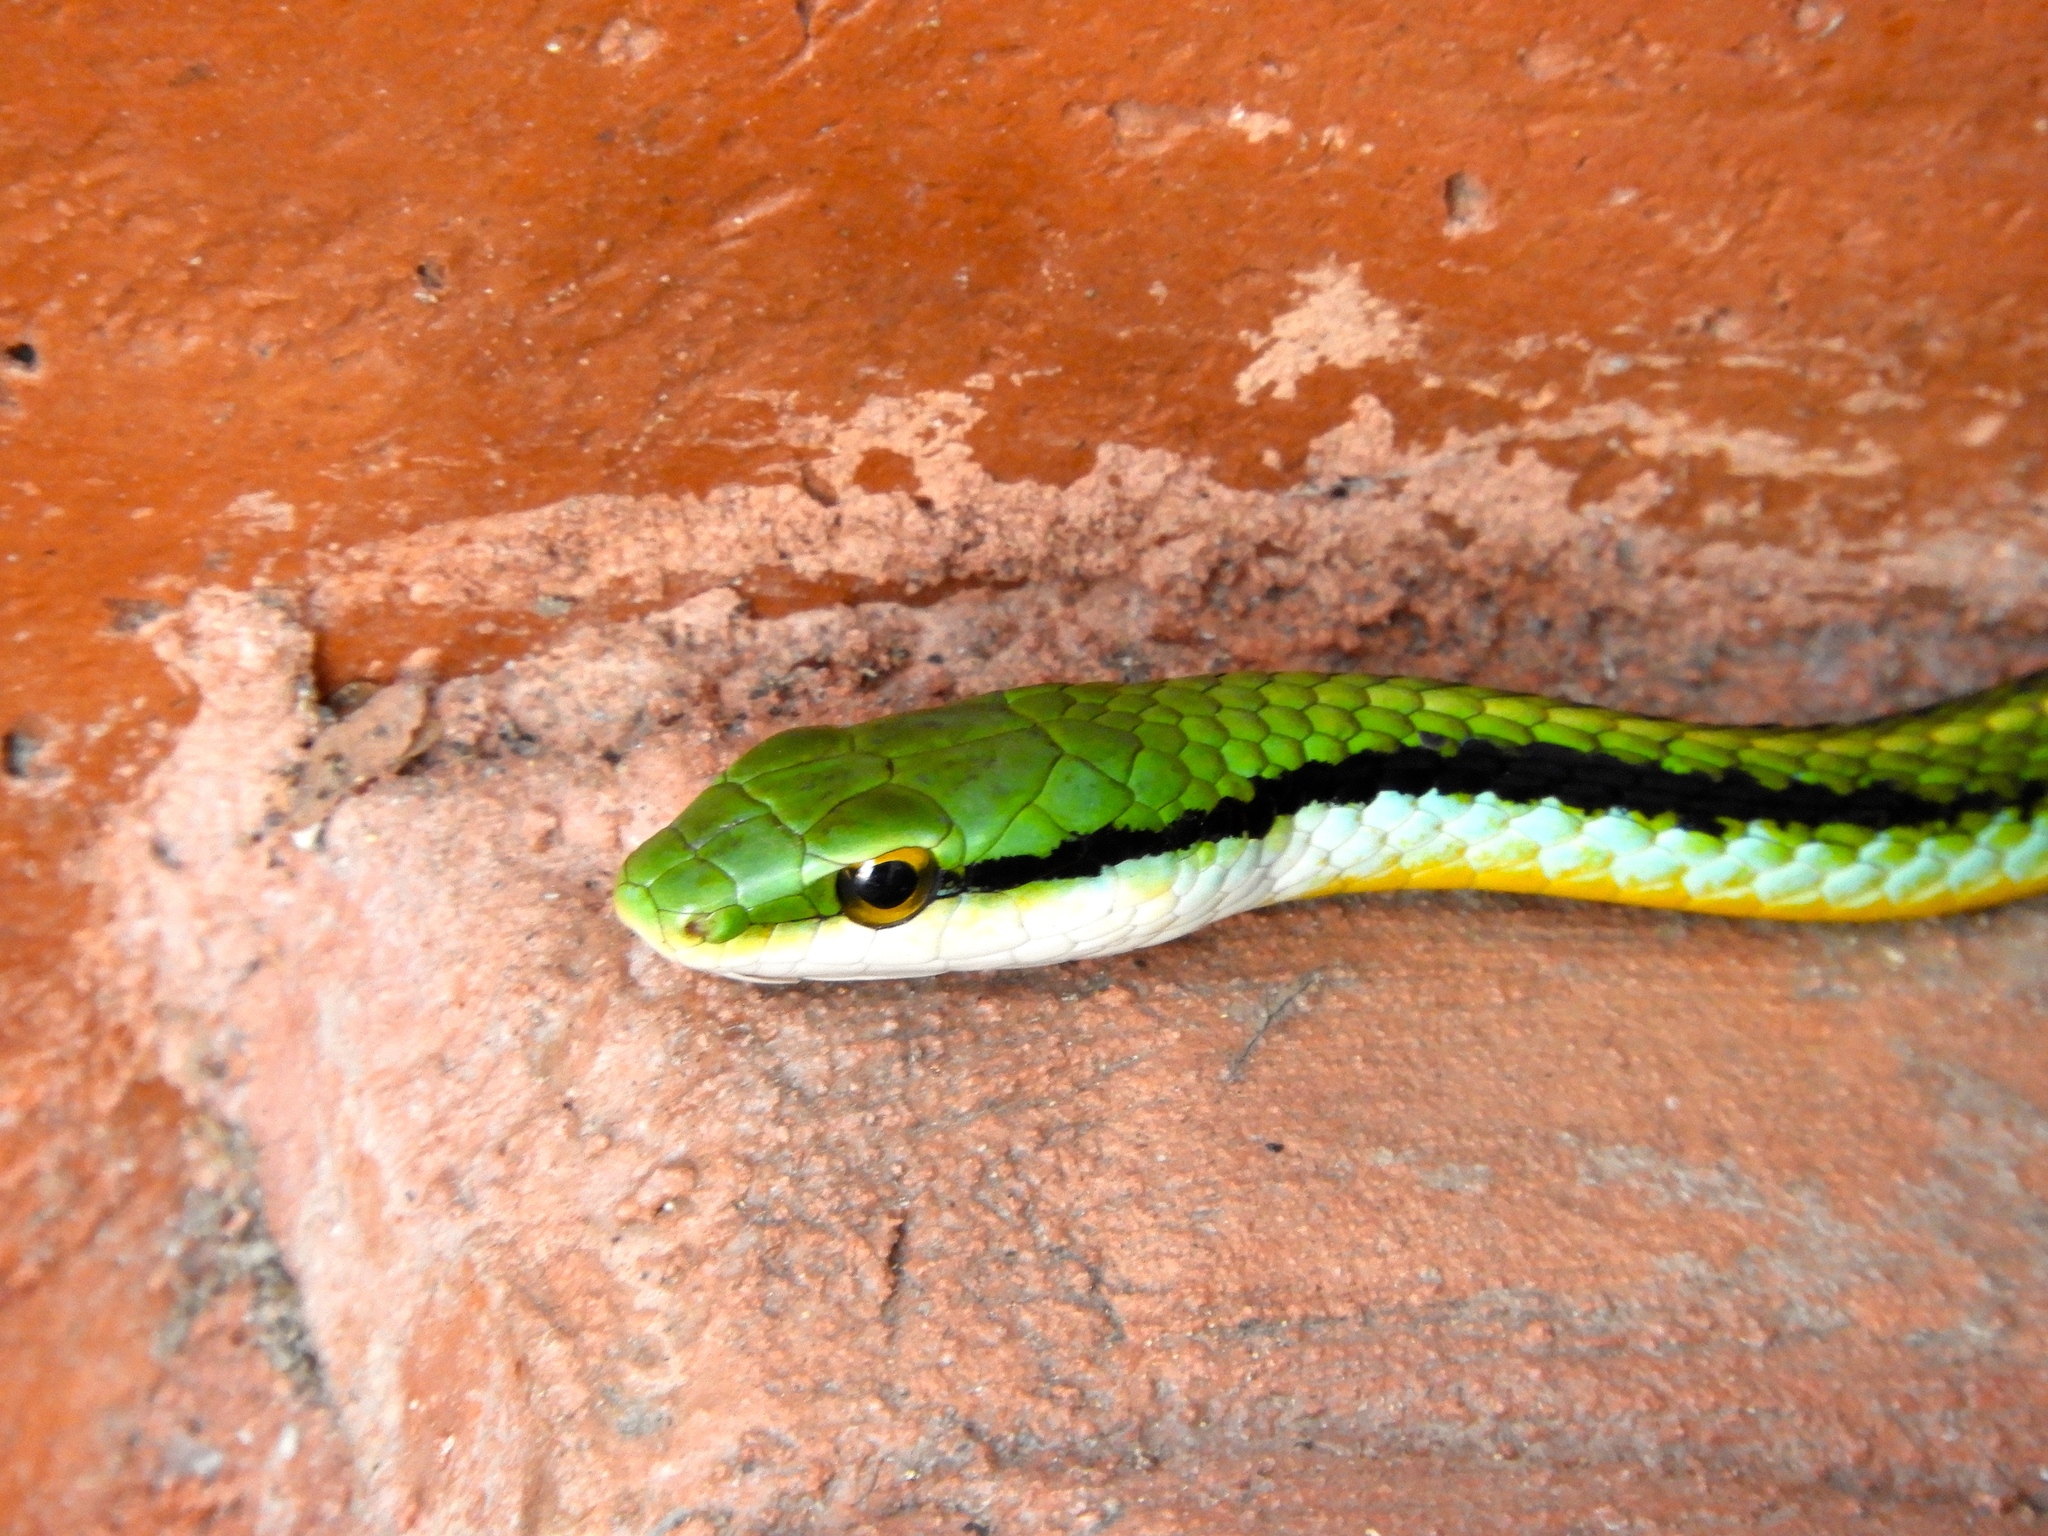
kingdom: Animalia
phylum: Chordata
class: Squamata
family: Colubridae
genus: Leptophis
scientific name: Leptophis diplotropis
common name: Pacific coast parrot snake
